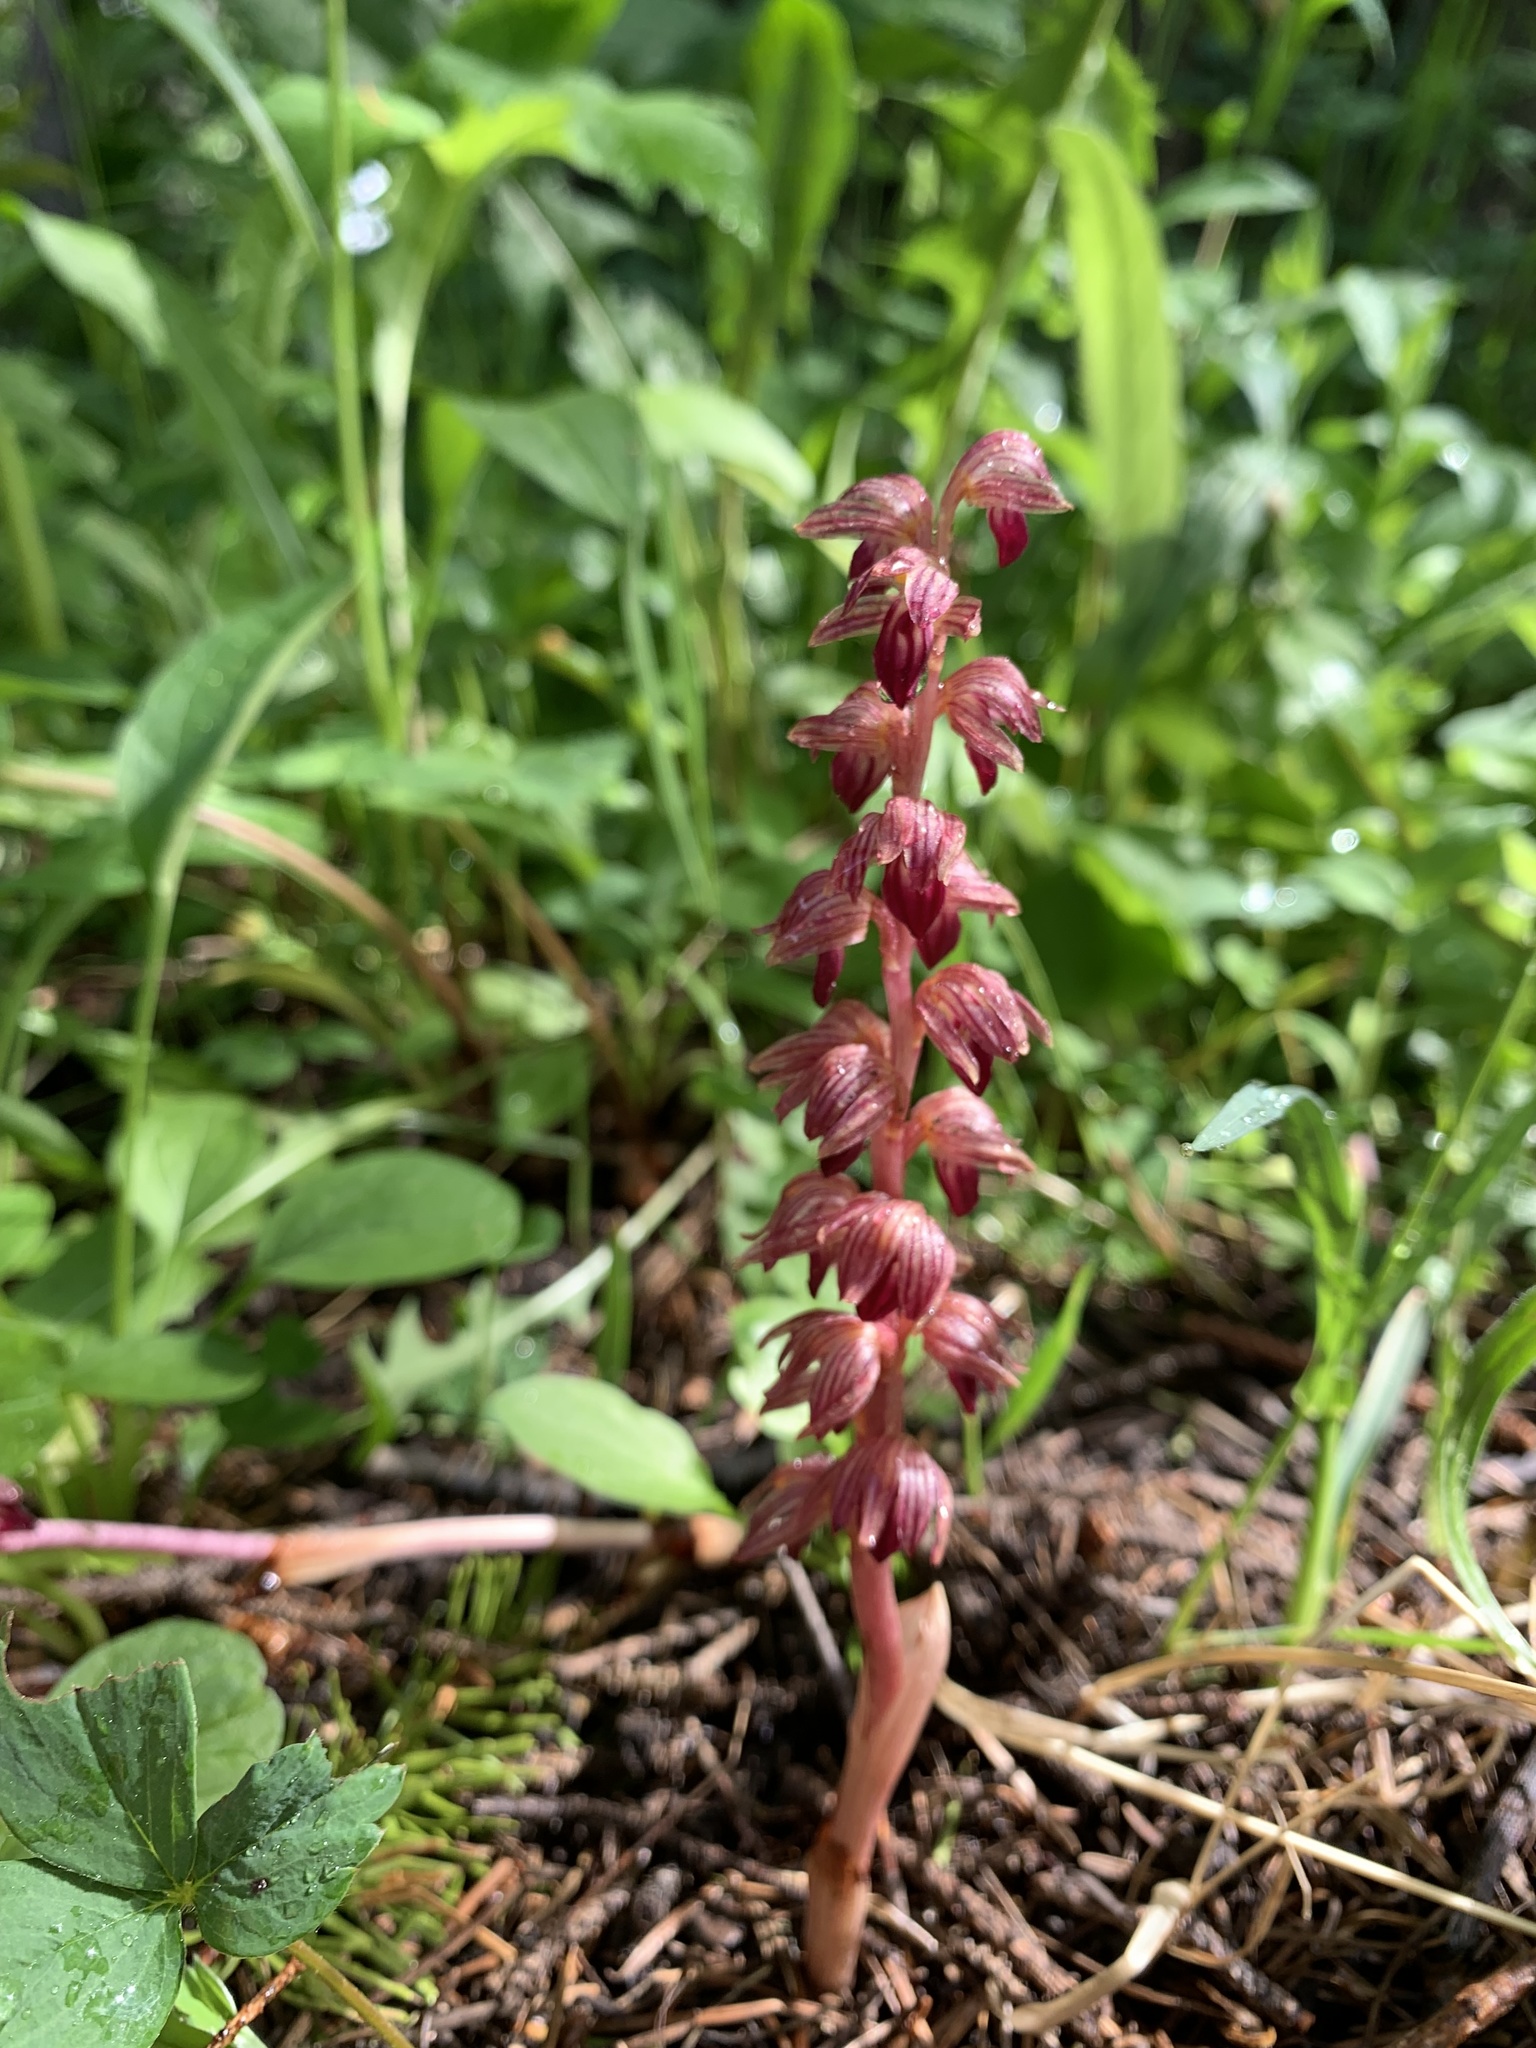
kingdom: Plantae
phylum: Tracheophyta
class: Liliopsida
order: Asparagales
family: Orchidaceae
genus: Corallorhiza
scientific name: Corallorhiza striata
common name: Hooded coralroot
